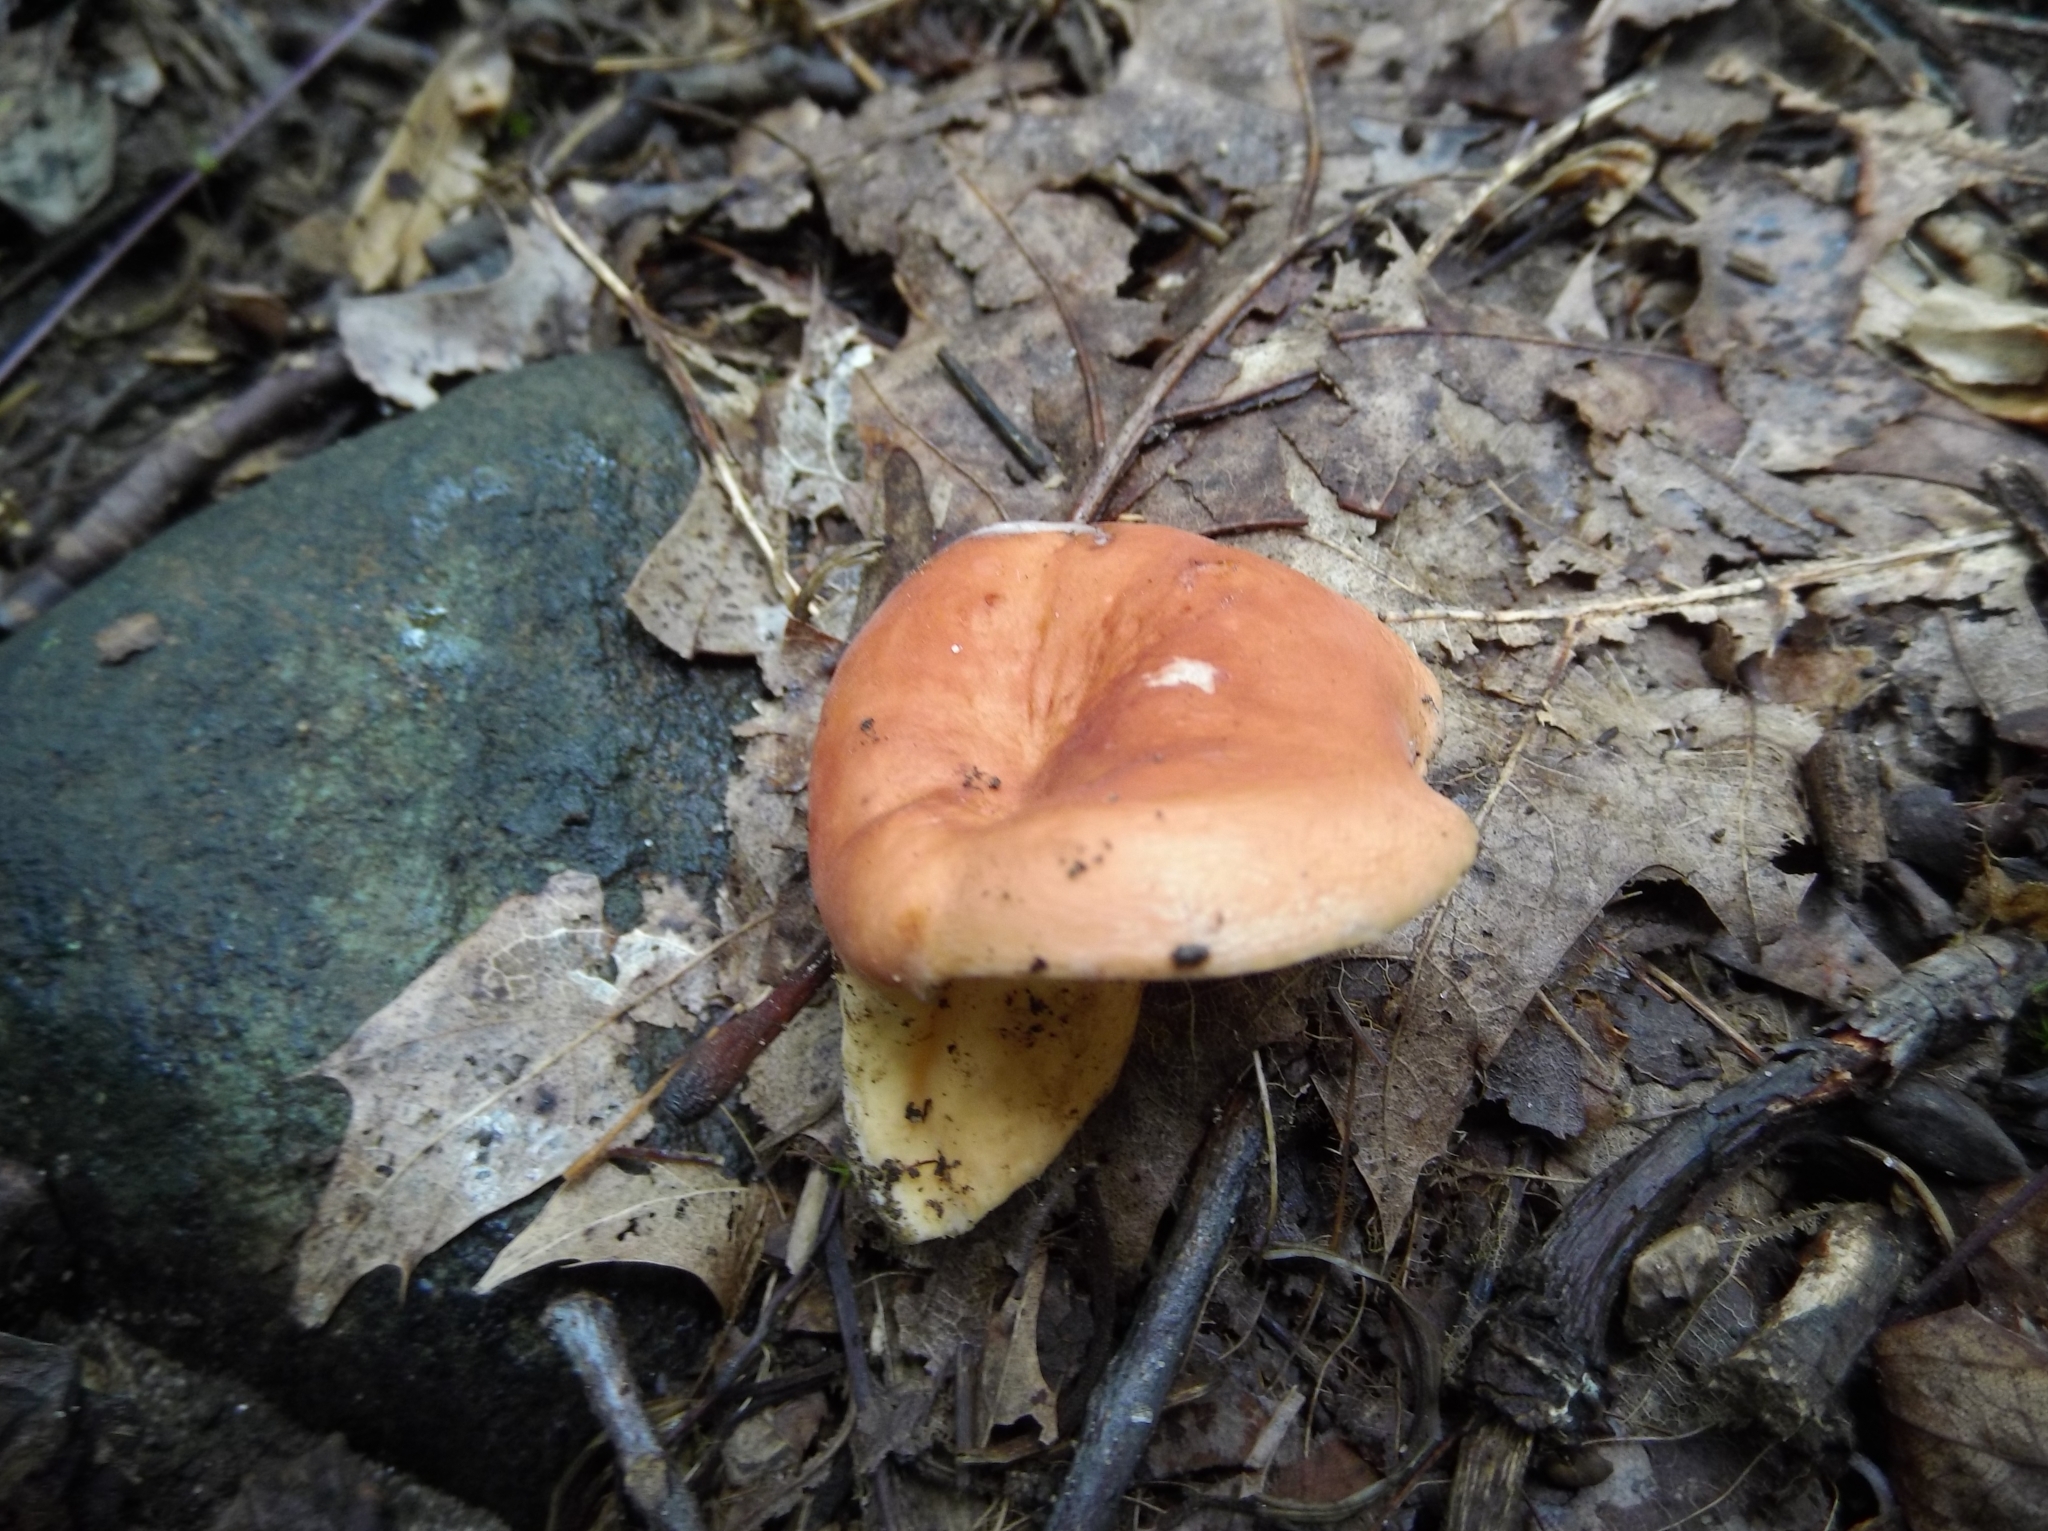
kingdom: Fungi
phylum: Basidiomycota
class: Agaricomycetes
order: Russulales
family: Russulaceae
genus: Lactarius
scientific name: Lactarius hygrophoroides
